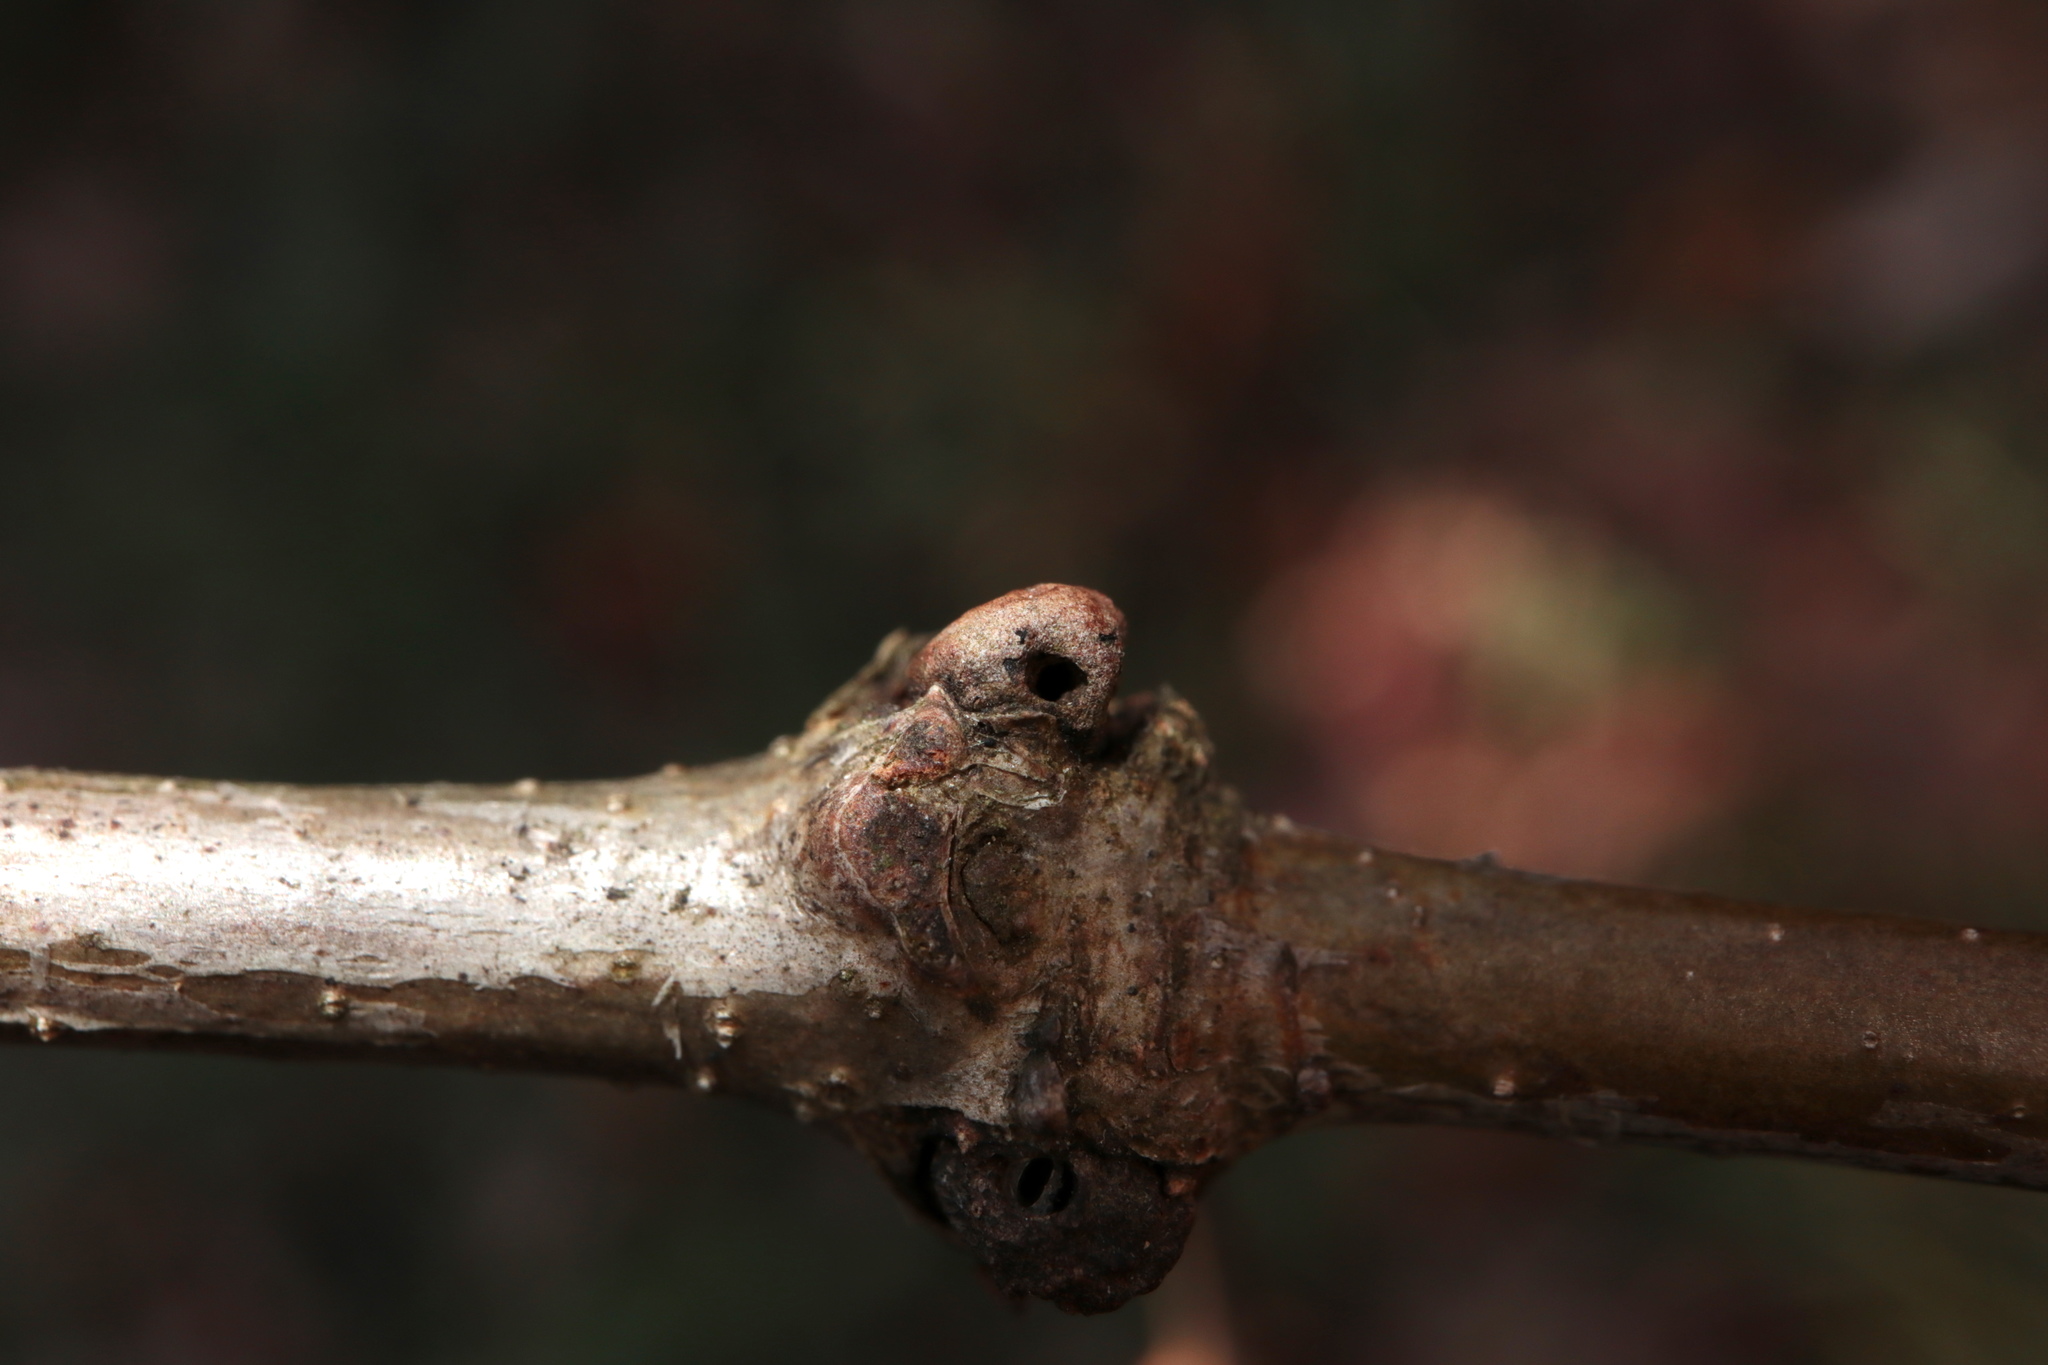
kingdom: Animalia
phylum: Arthropoda
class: Insecta
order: Hymenoptera
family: Cynipidae
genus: Andricus
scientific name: Andricus
